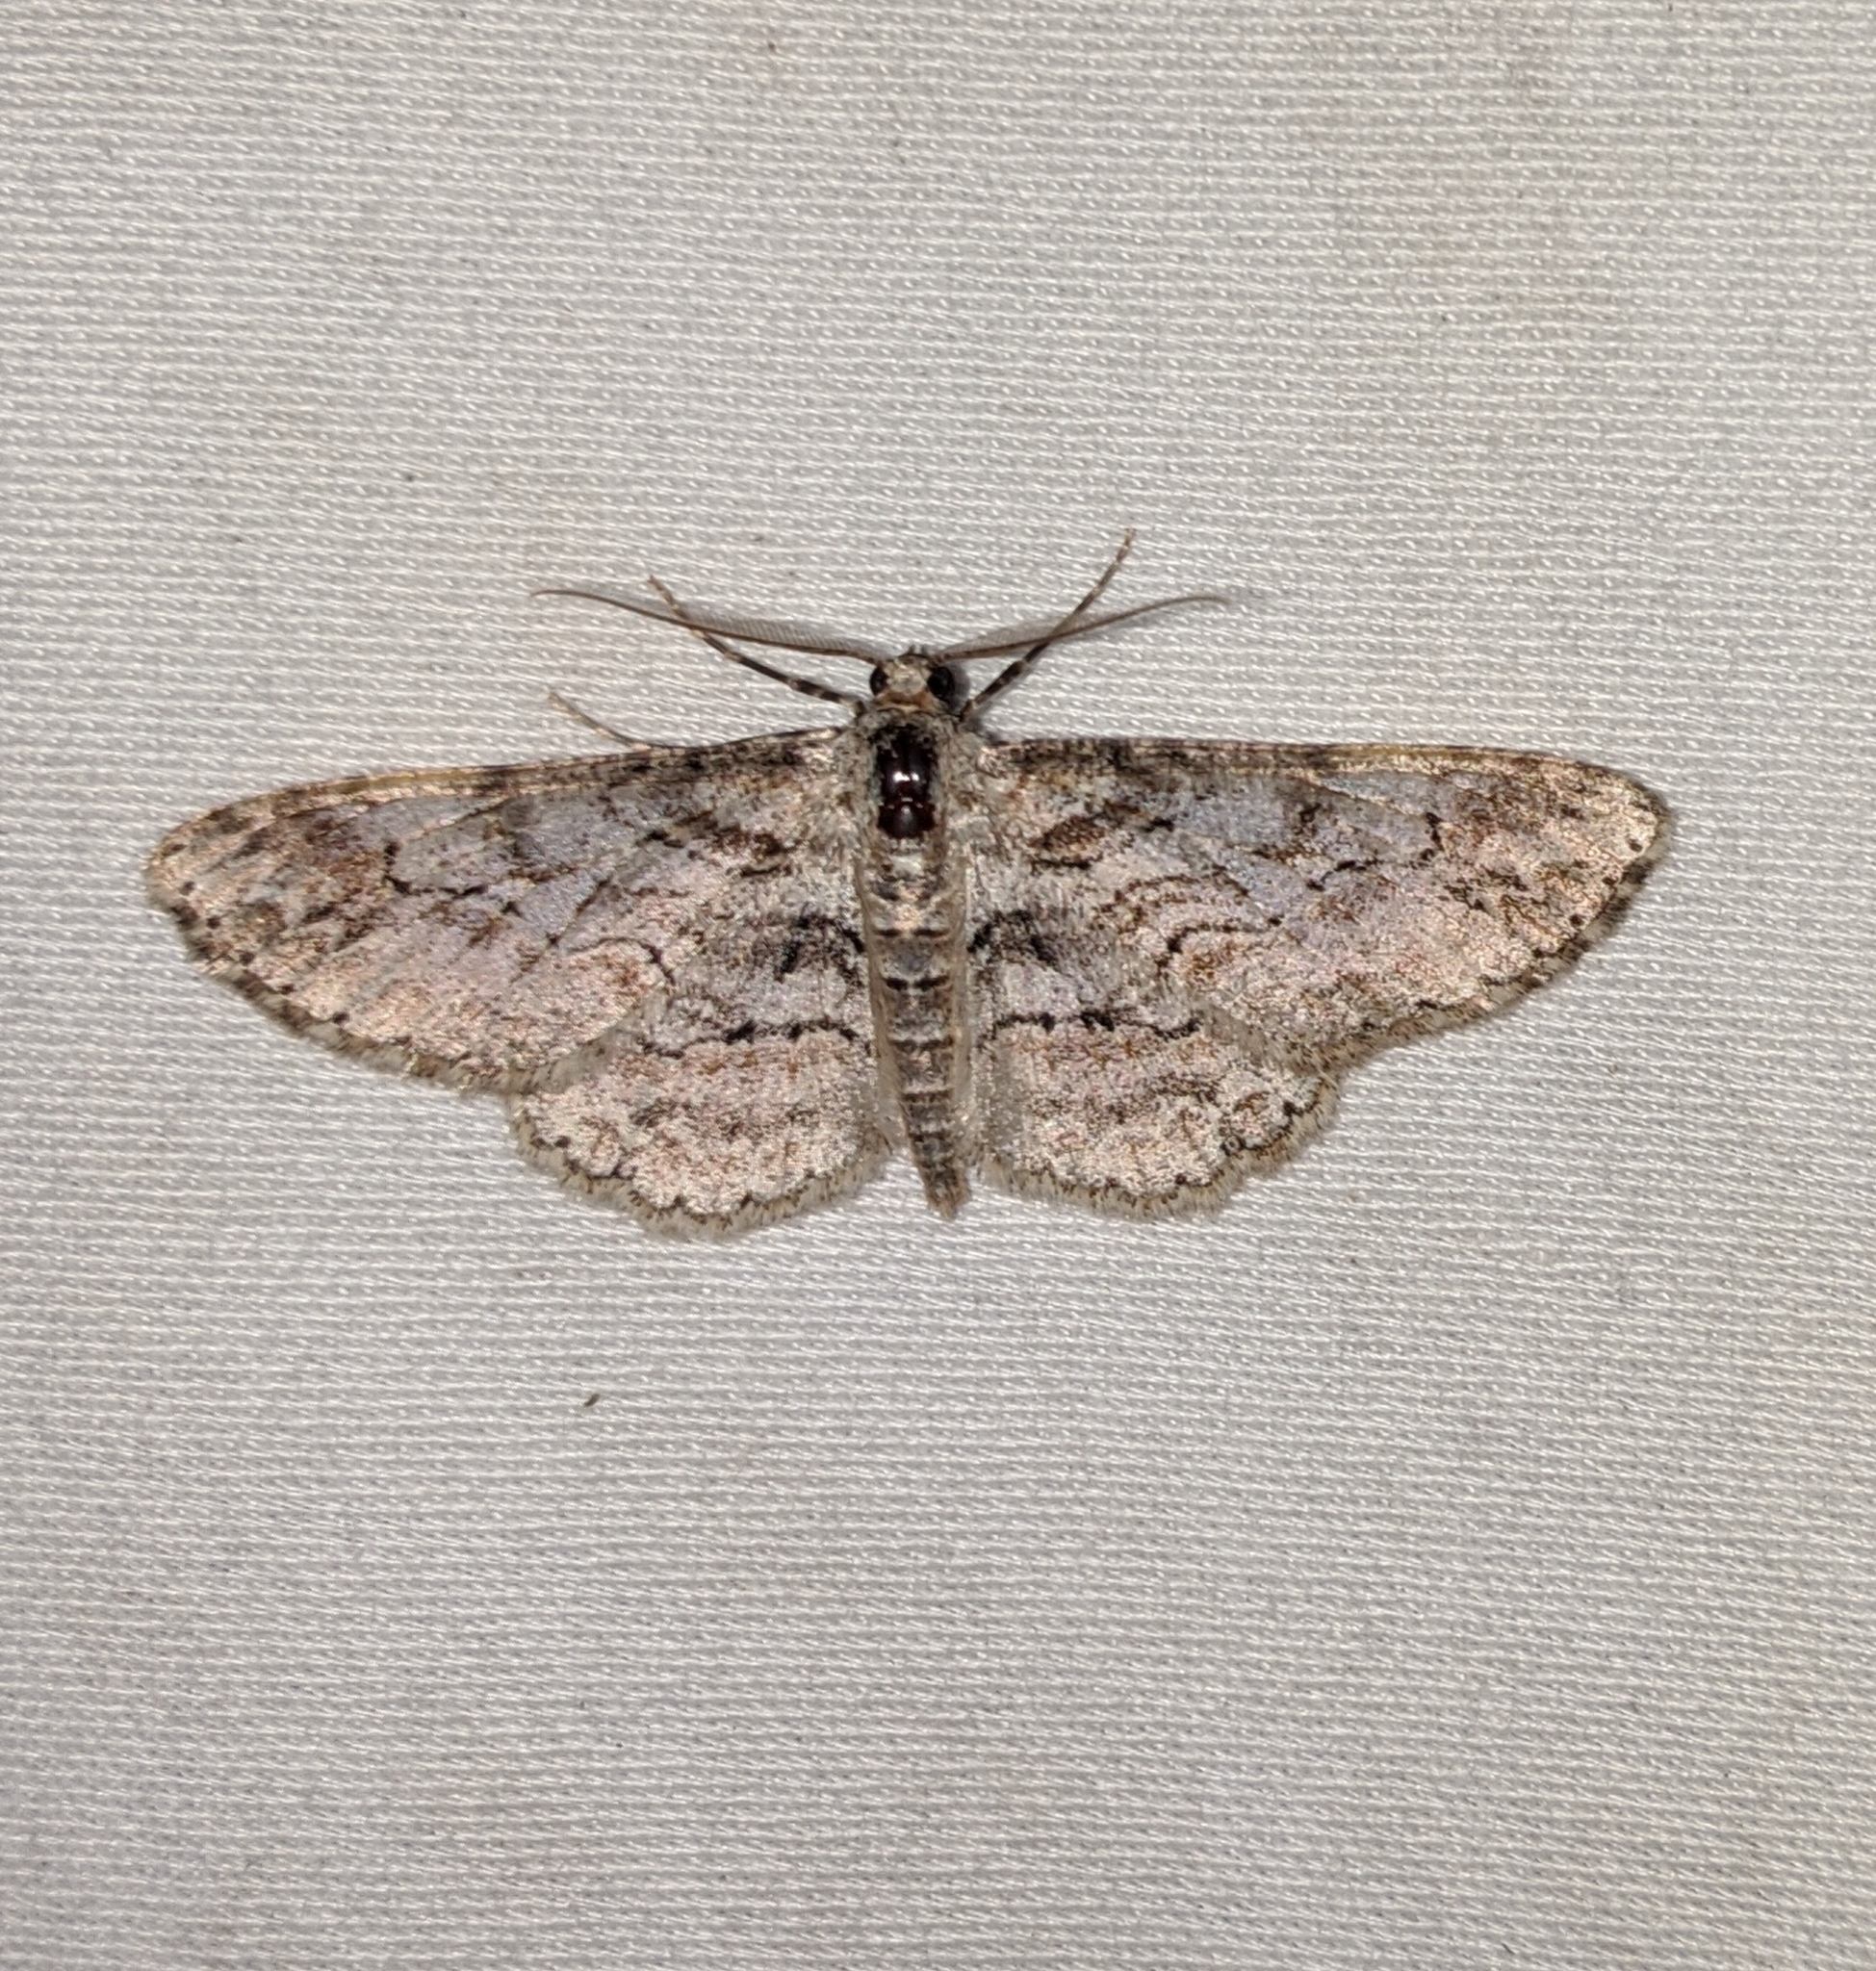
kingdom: Animalia
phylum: Arthropoda
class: Insecta
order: Lepidoptera
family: Geometridae
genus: Iridopsis
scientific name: Iridopsis emasculatum
